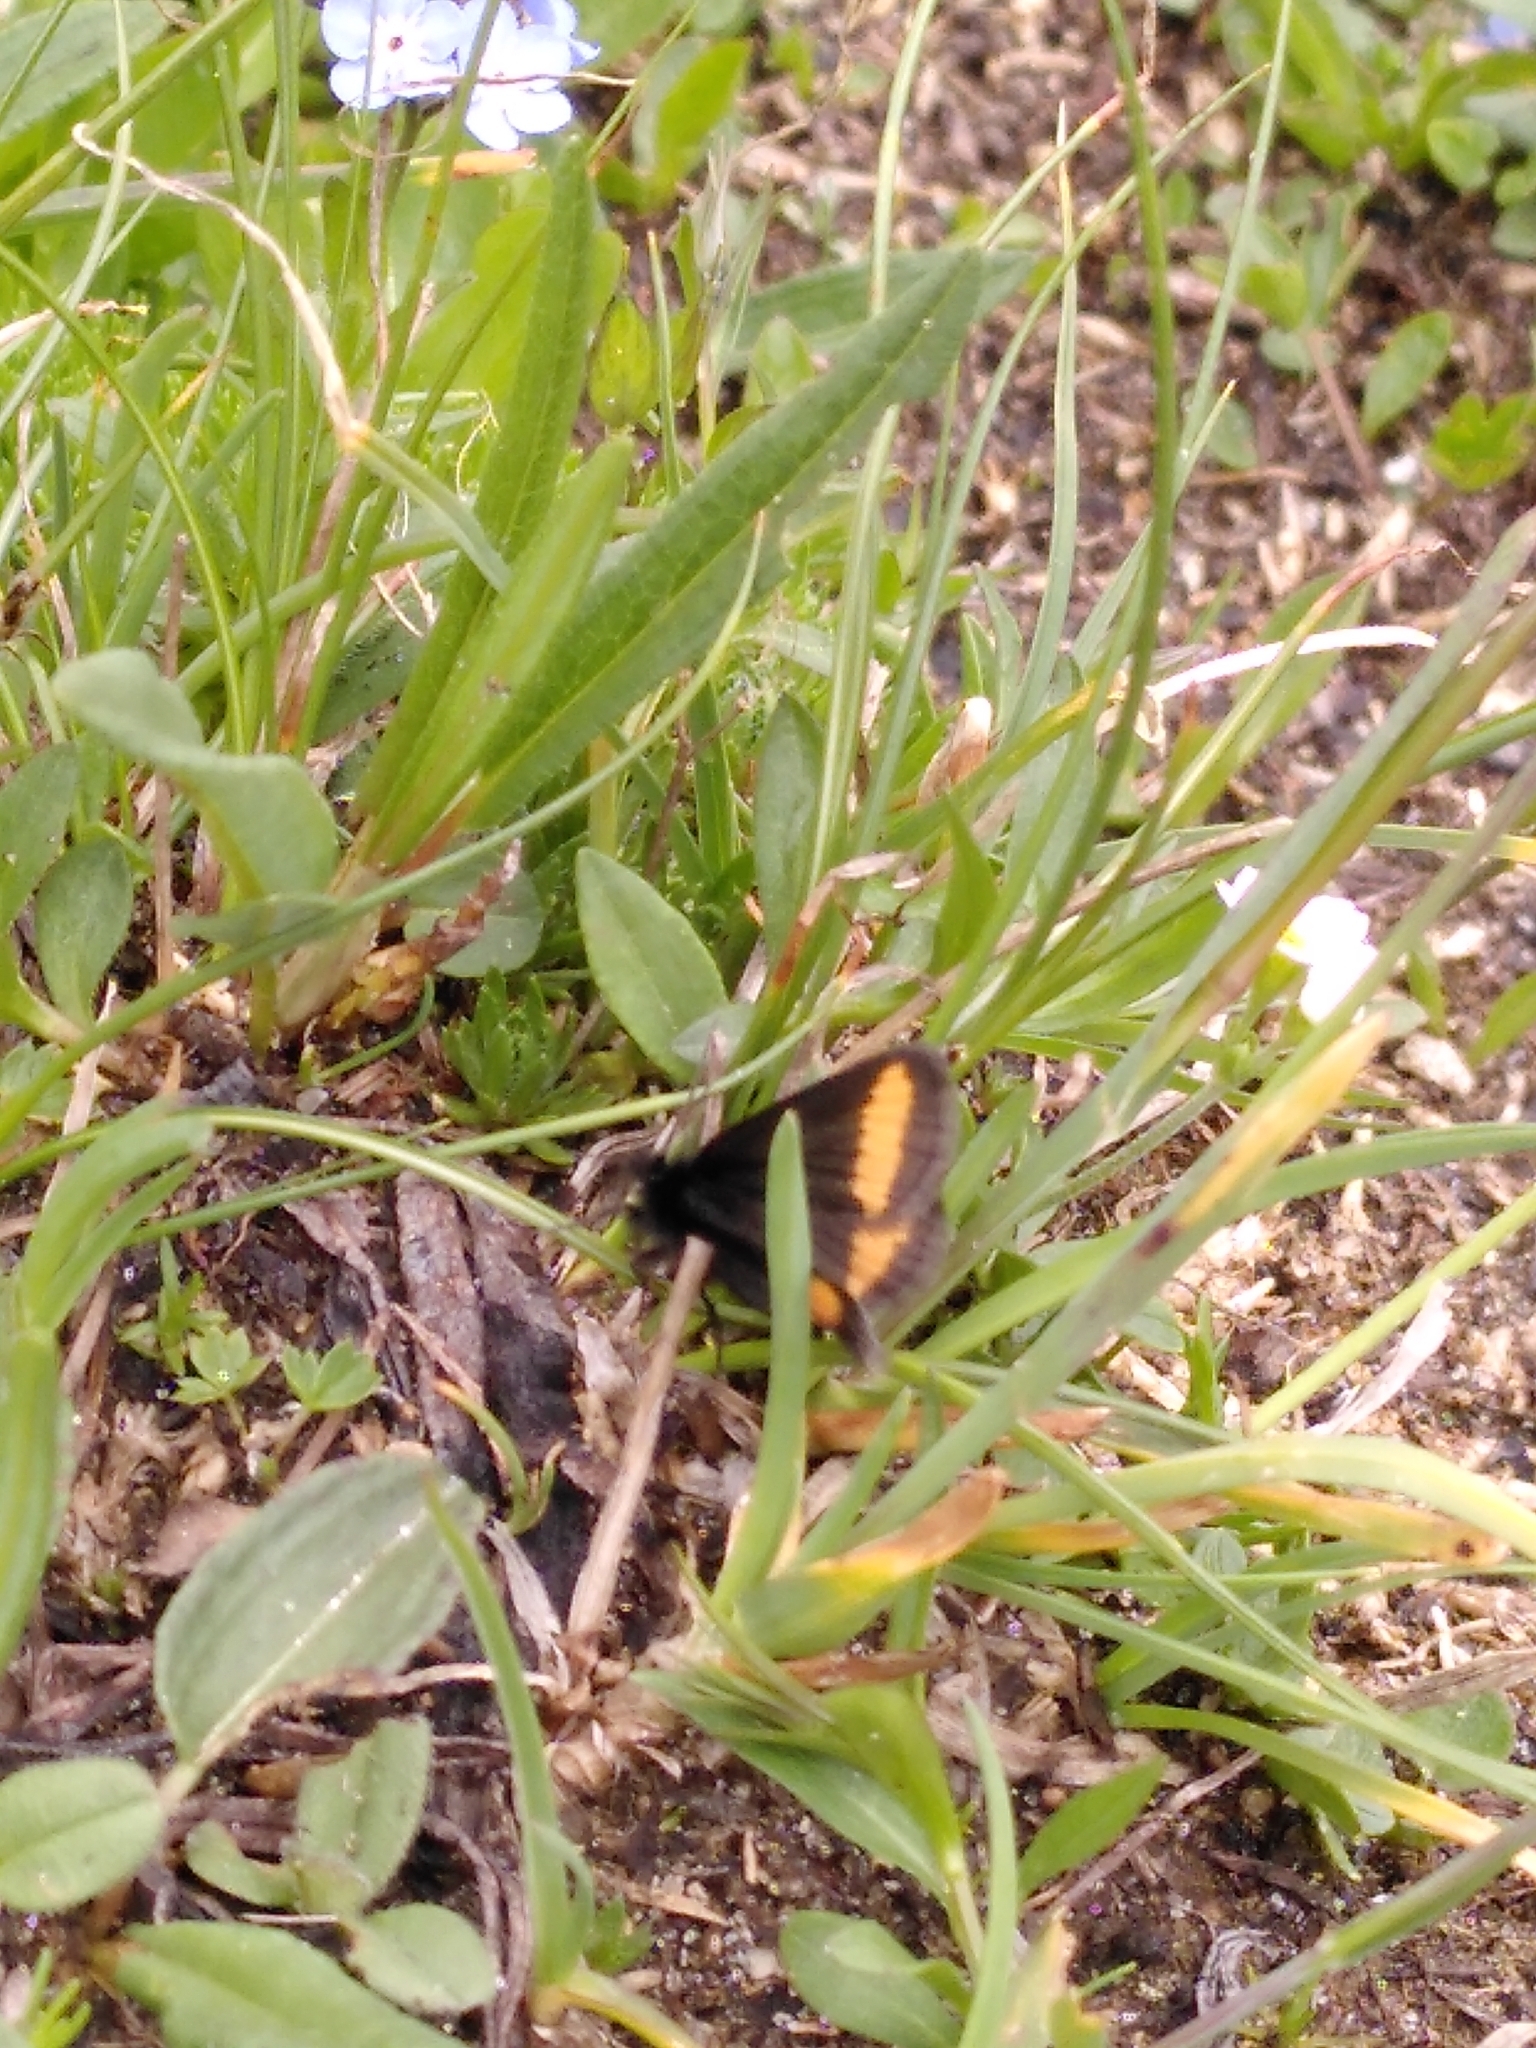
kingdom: Animalia
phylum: Arthropoda
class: Insecta
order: Lepidoptera
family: Geometridae
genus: Psodos
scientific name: Psodos quadrifaria
